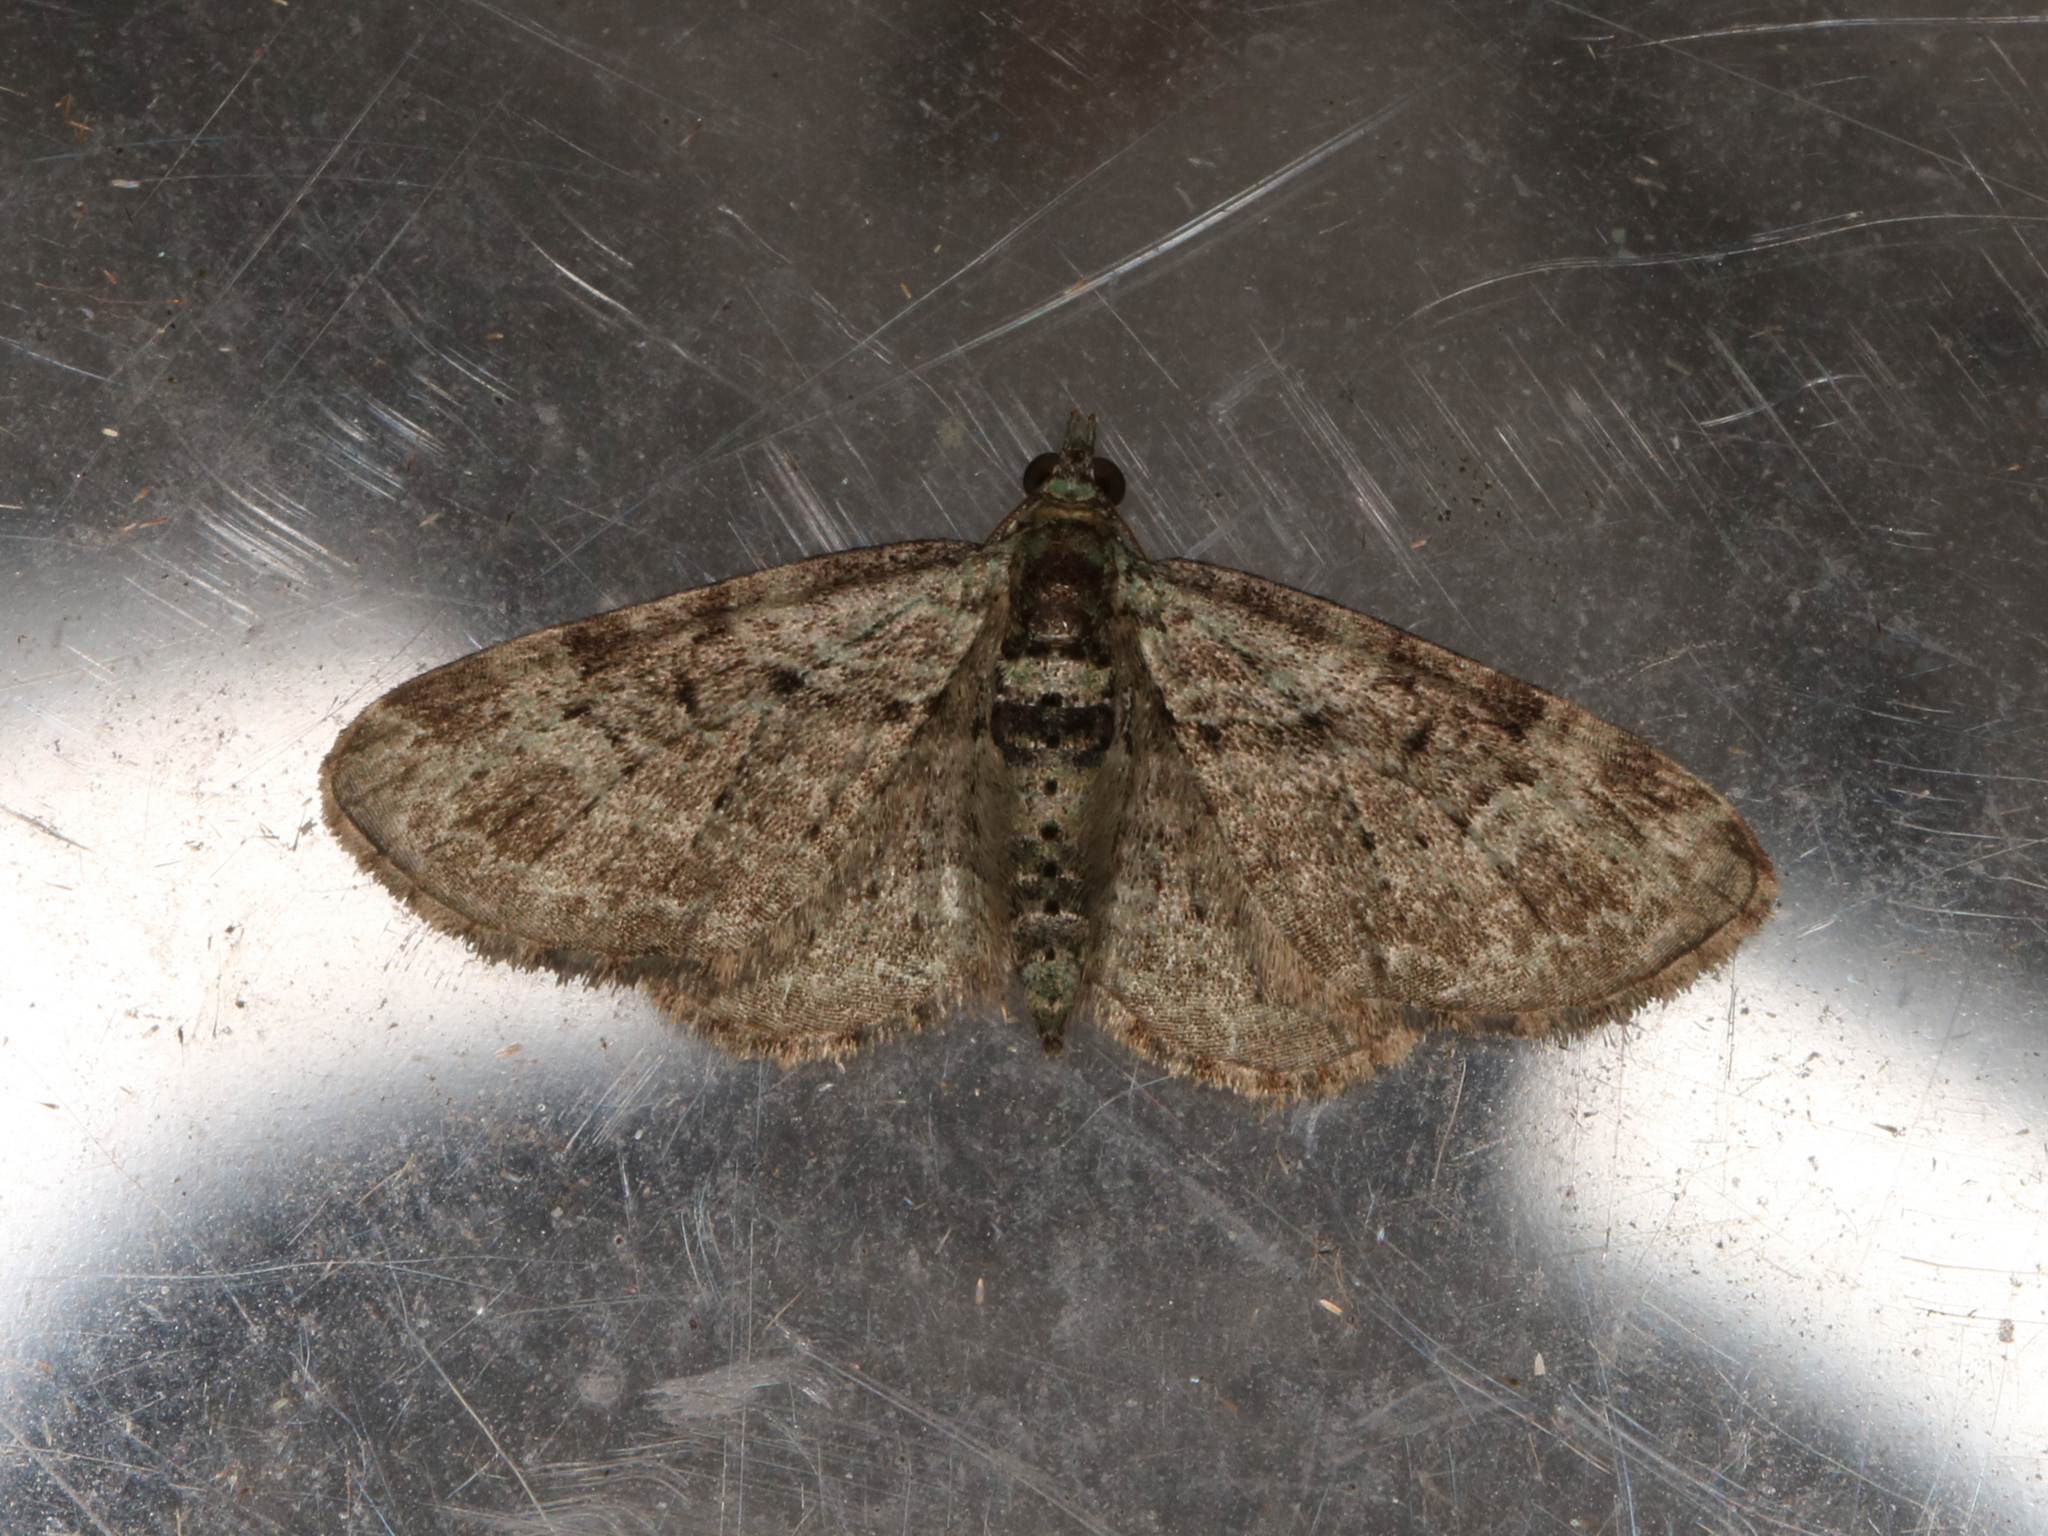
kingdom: Animalia
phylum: Arthropoda
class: Insecta
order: Lepidoptera
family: Geometridae
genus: Pasiphila
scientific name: Pasiphila rectangulata
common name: Green pug
